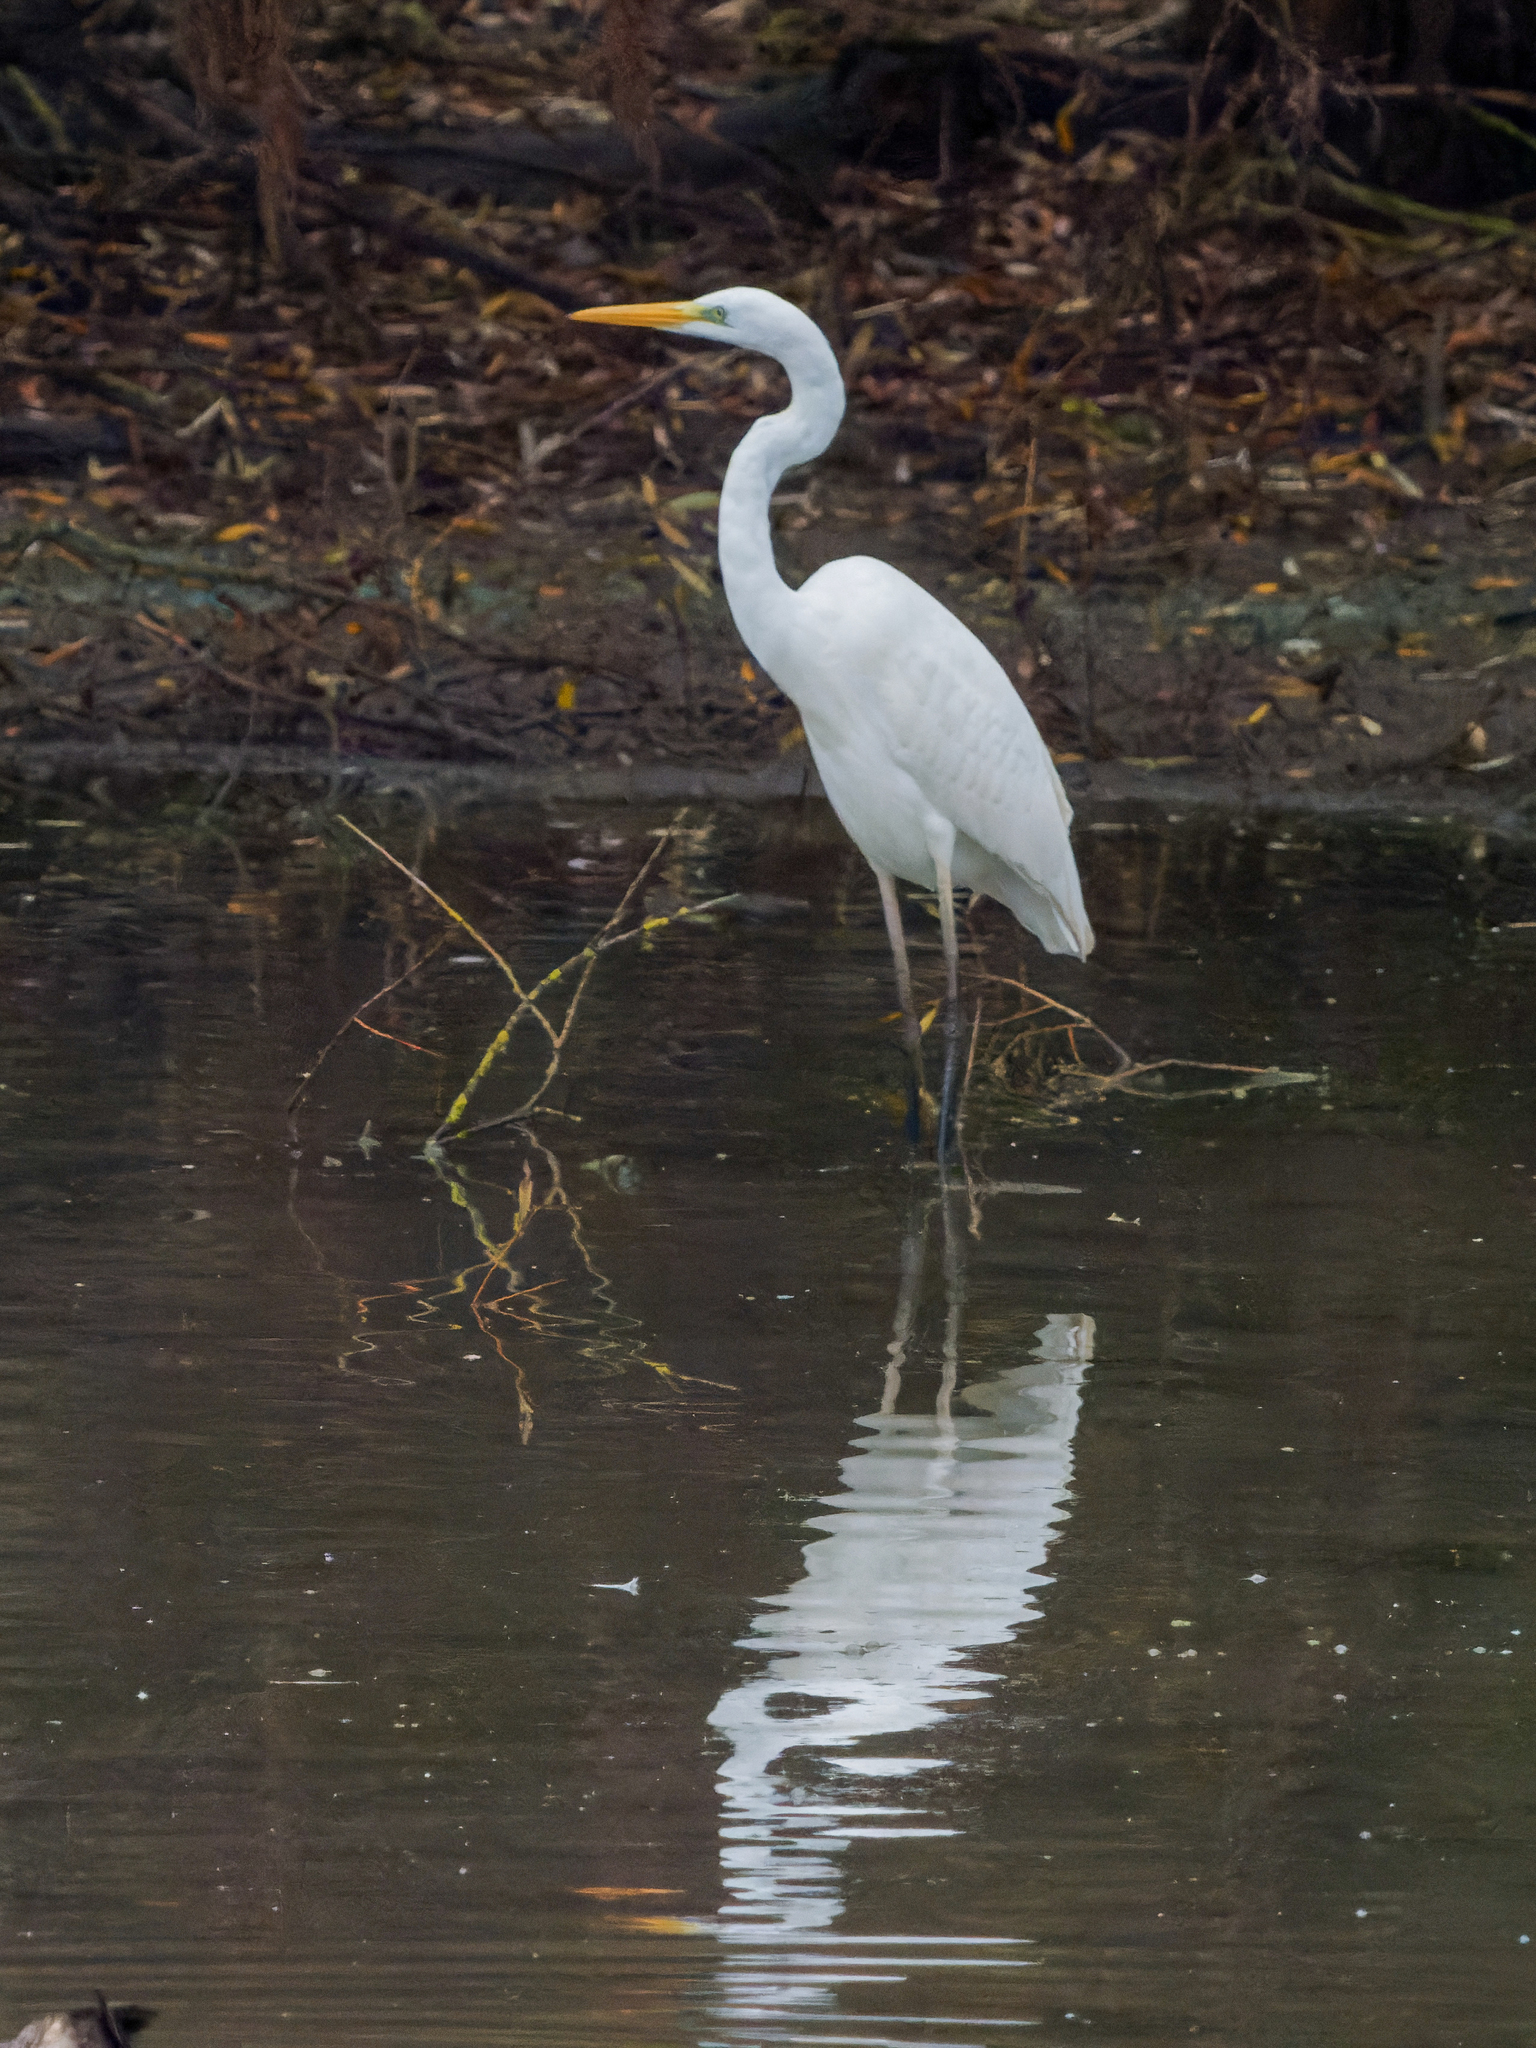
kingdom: Animalia
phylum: Chordata
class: Aves
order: Pelecaniformes
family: Ardeidae
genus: Ardea
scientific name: Ardea alba
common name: Great egret
